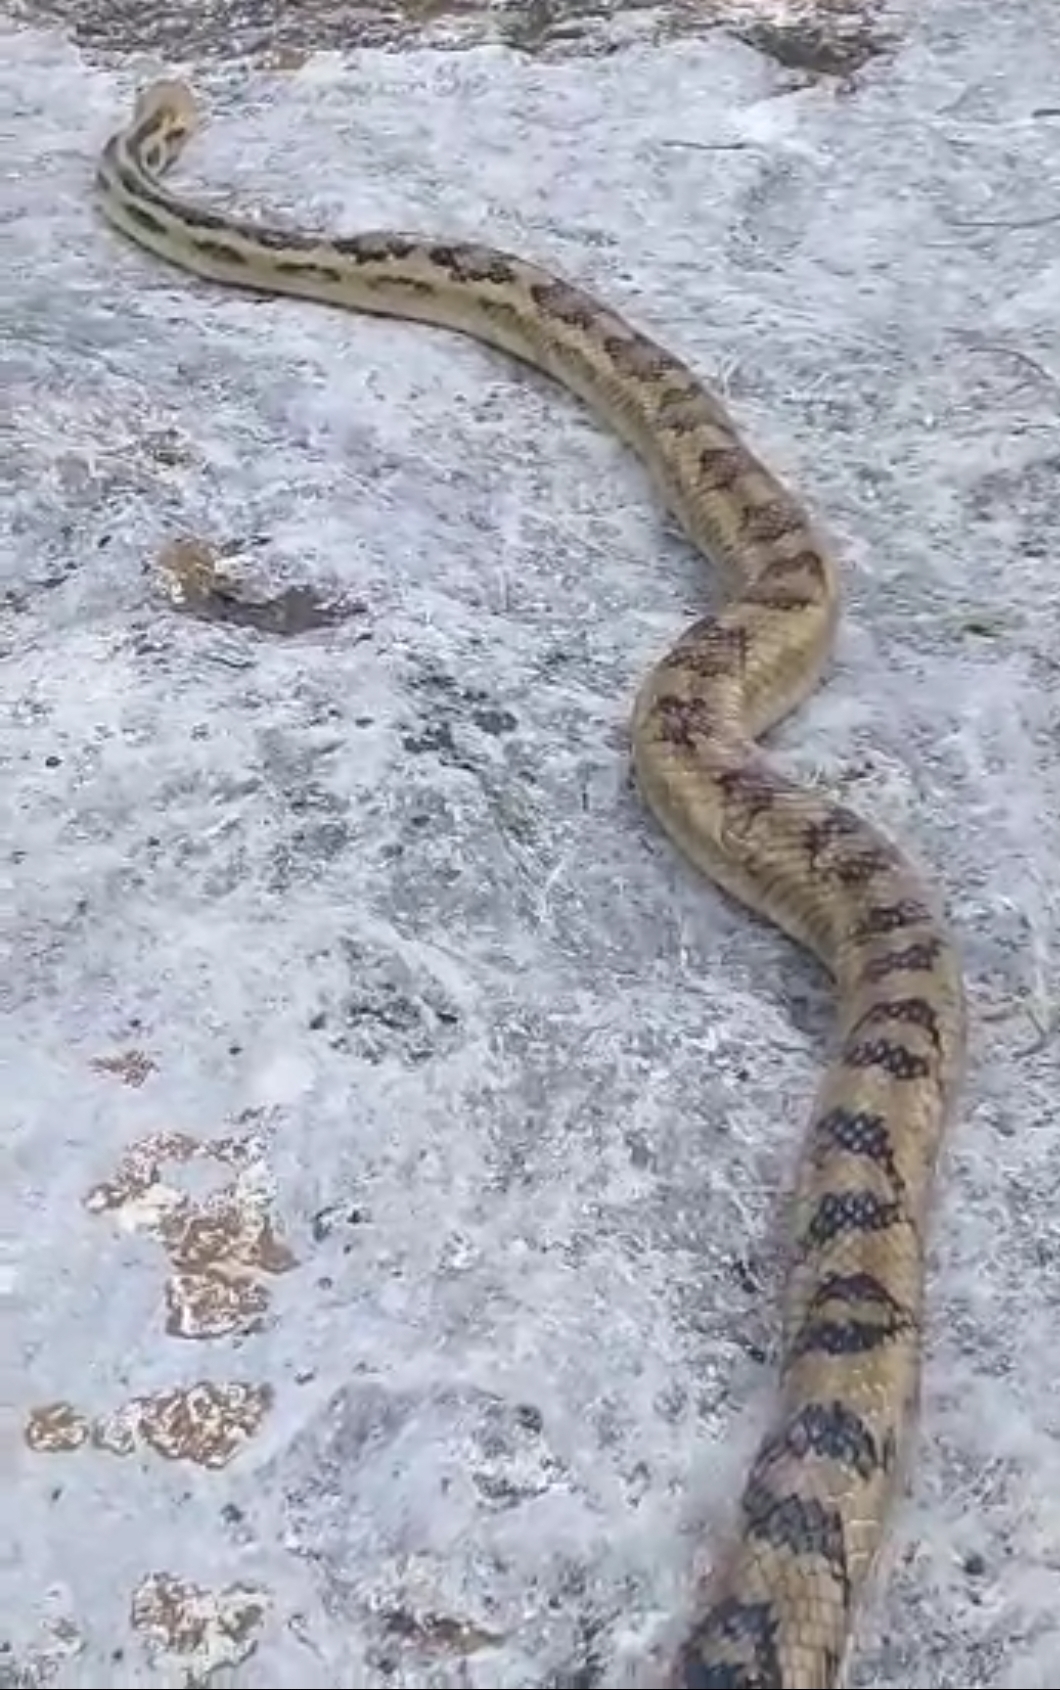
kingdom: Animalia
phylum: Chordata
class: Squamata
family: Colubridae
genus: Pituophis
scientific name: Pituophis lineaticollis
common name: Cincuate bull snake
